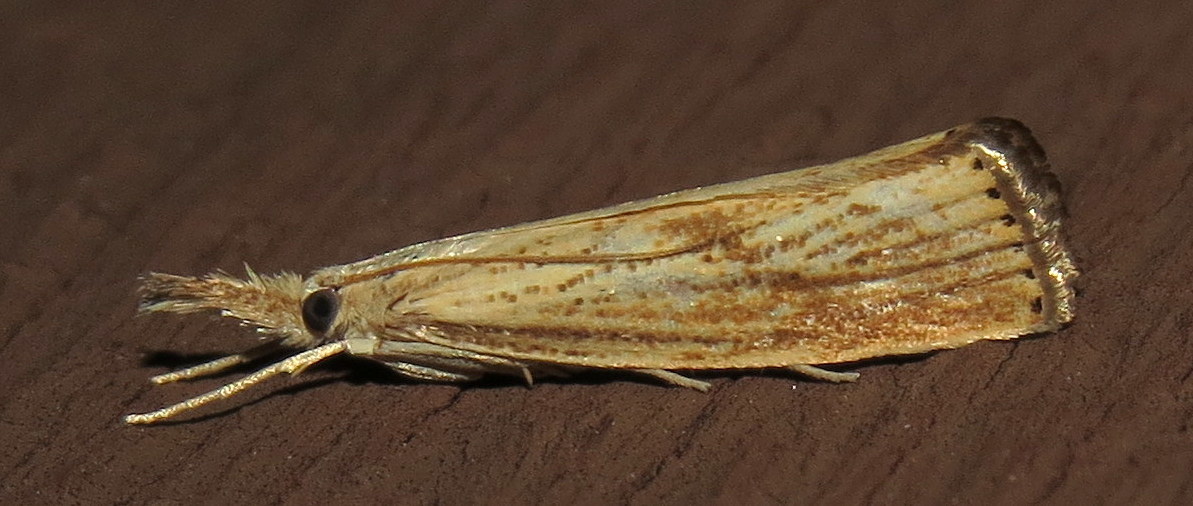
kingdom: Animalia
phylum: Arthropoda
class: Insecta
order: Lepidoptera
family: Crambidae
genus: Agriphila
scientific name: Agriphila ruricolellus
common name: Lesser vagabond sod webworm
